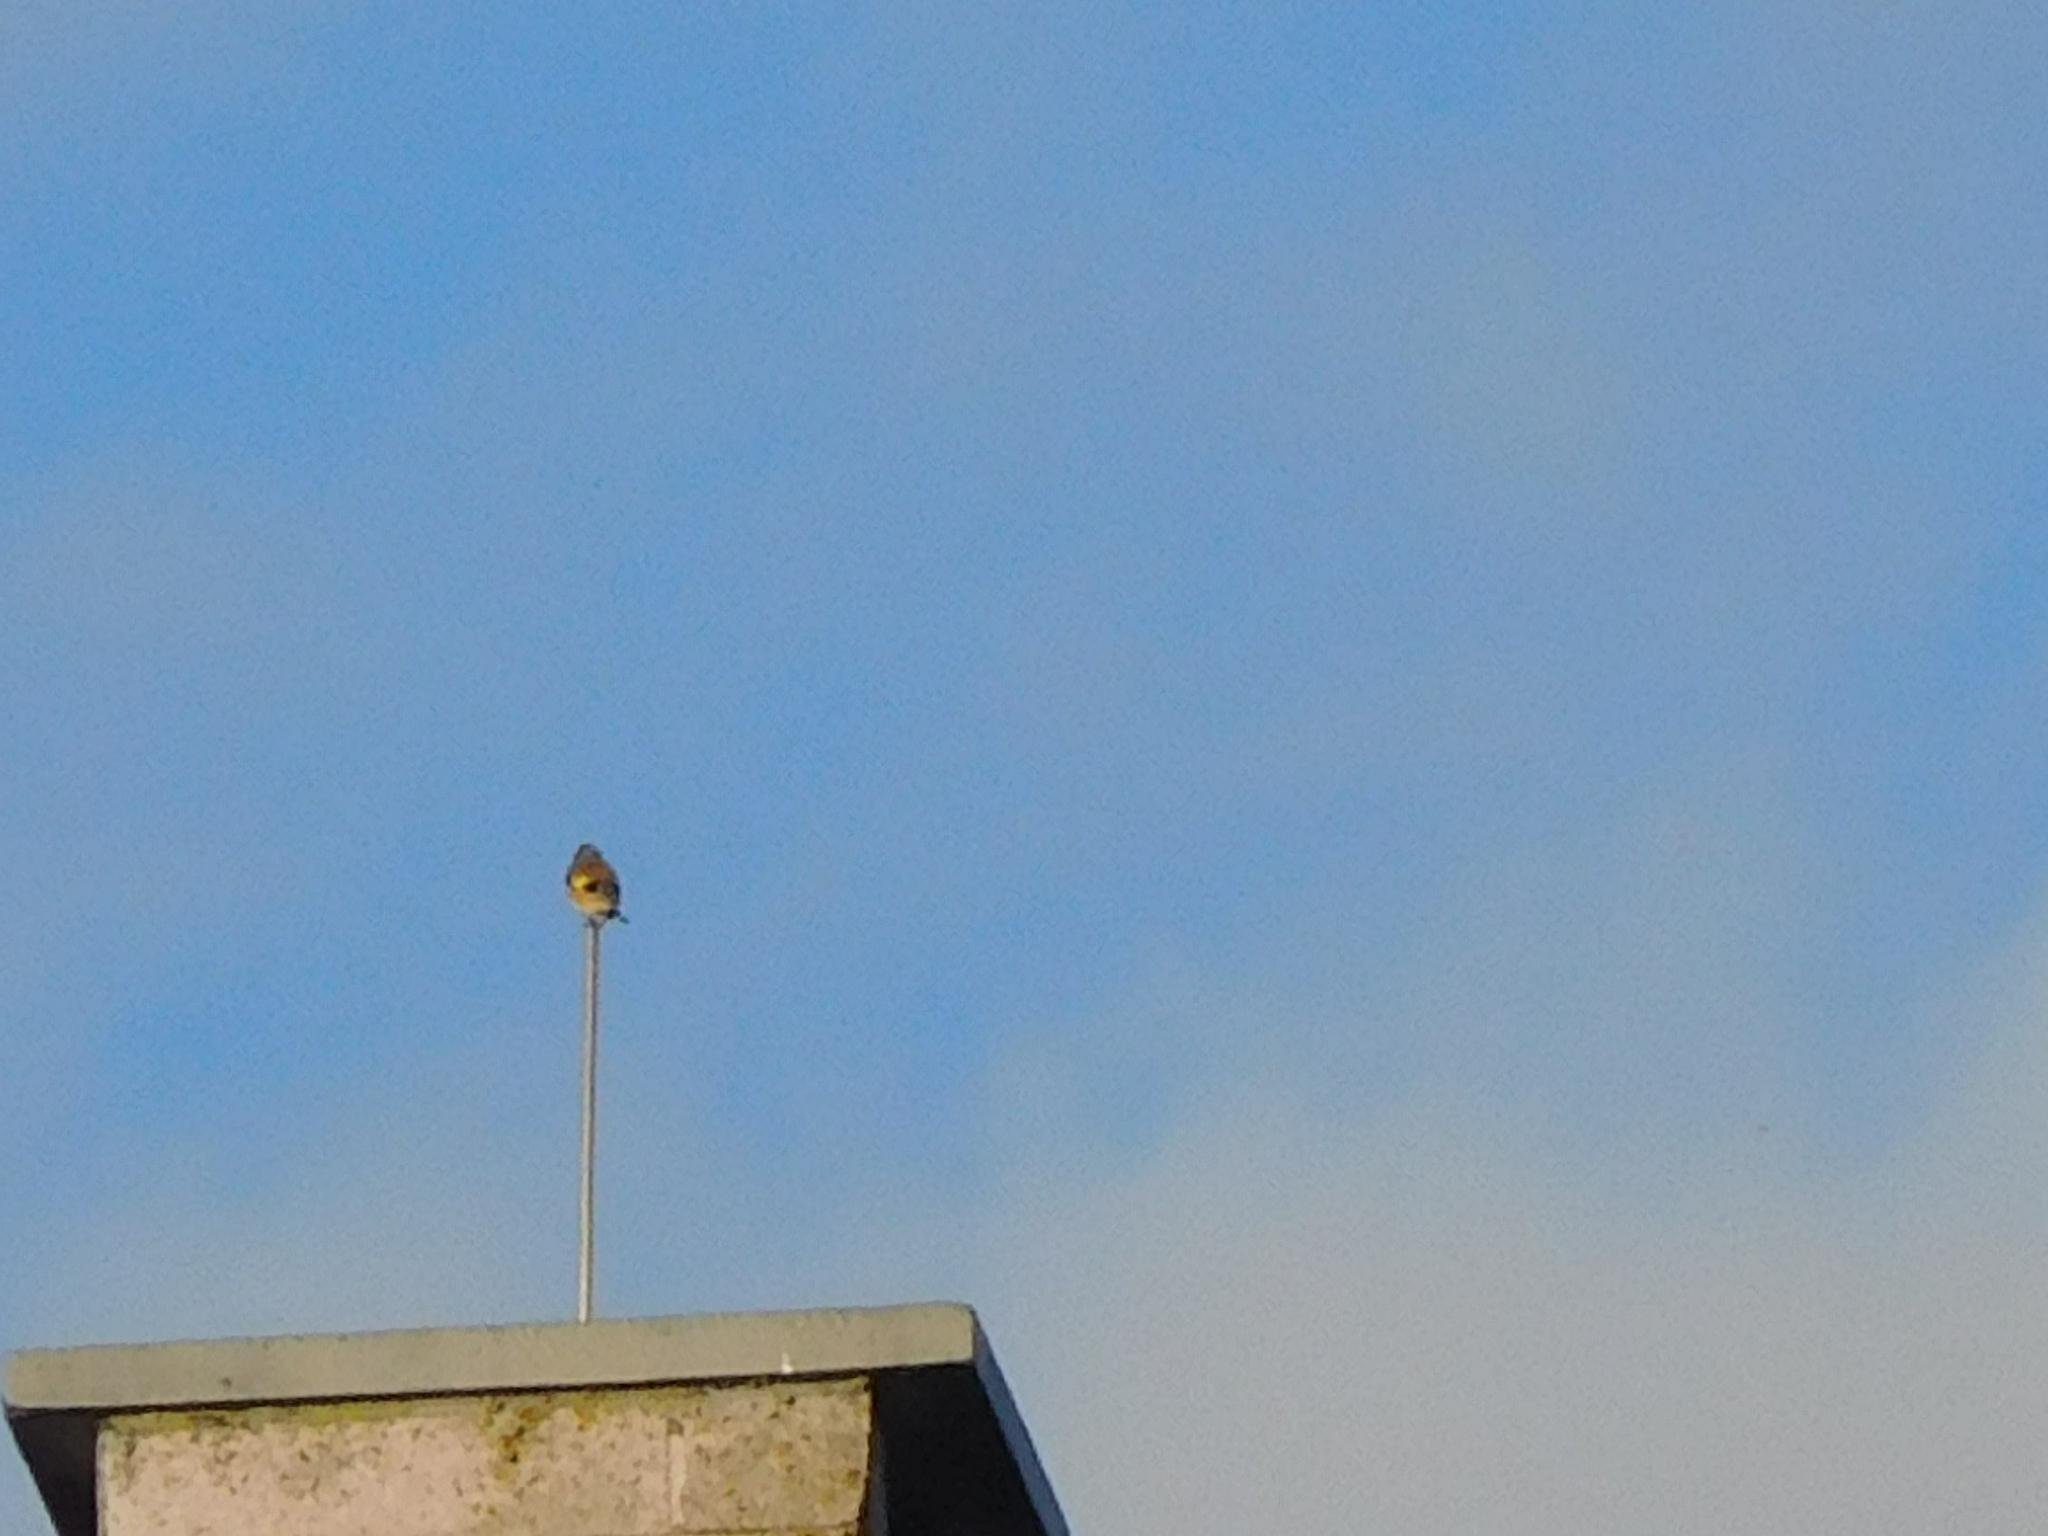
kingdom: Animalia
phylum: Chordata
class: Aves
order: Passeriformes
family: Fringillidae
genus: Carduelis
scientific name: Carduelis carduelis
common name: European goldfinch
